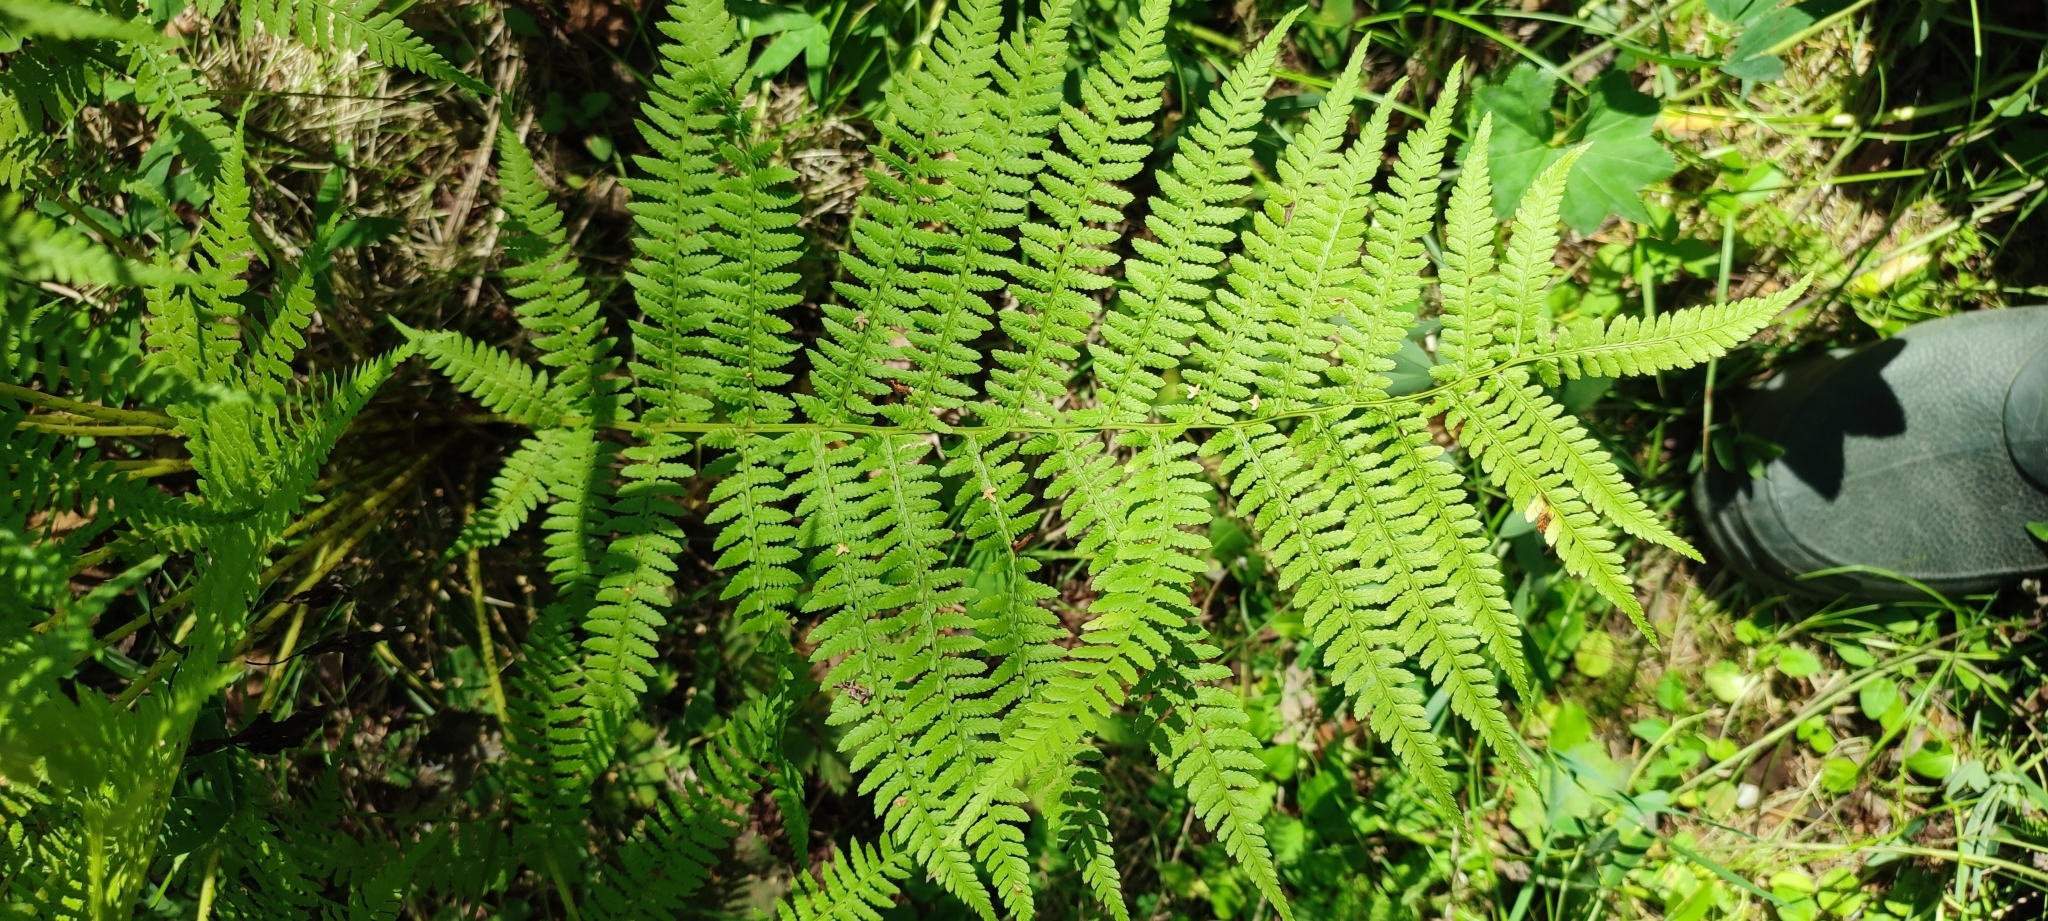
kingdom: Plantae
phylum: Tracheophyta
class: Polypodiopsida
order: Polypodiales
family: Athyriaceae
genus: Athyrium
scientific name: Athyrium filix-femina
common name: Lady fern
